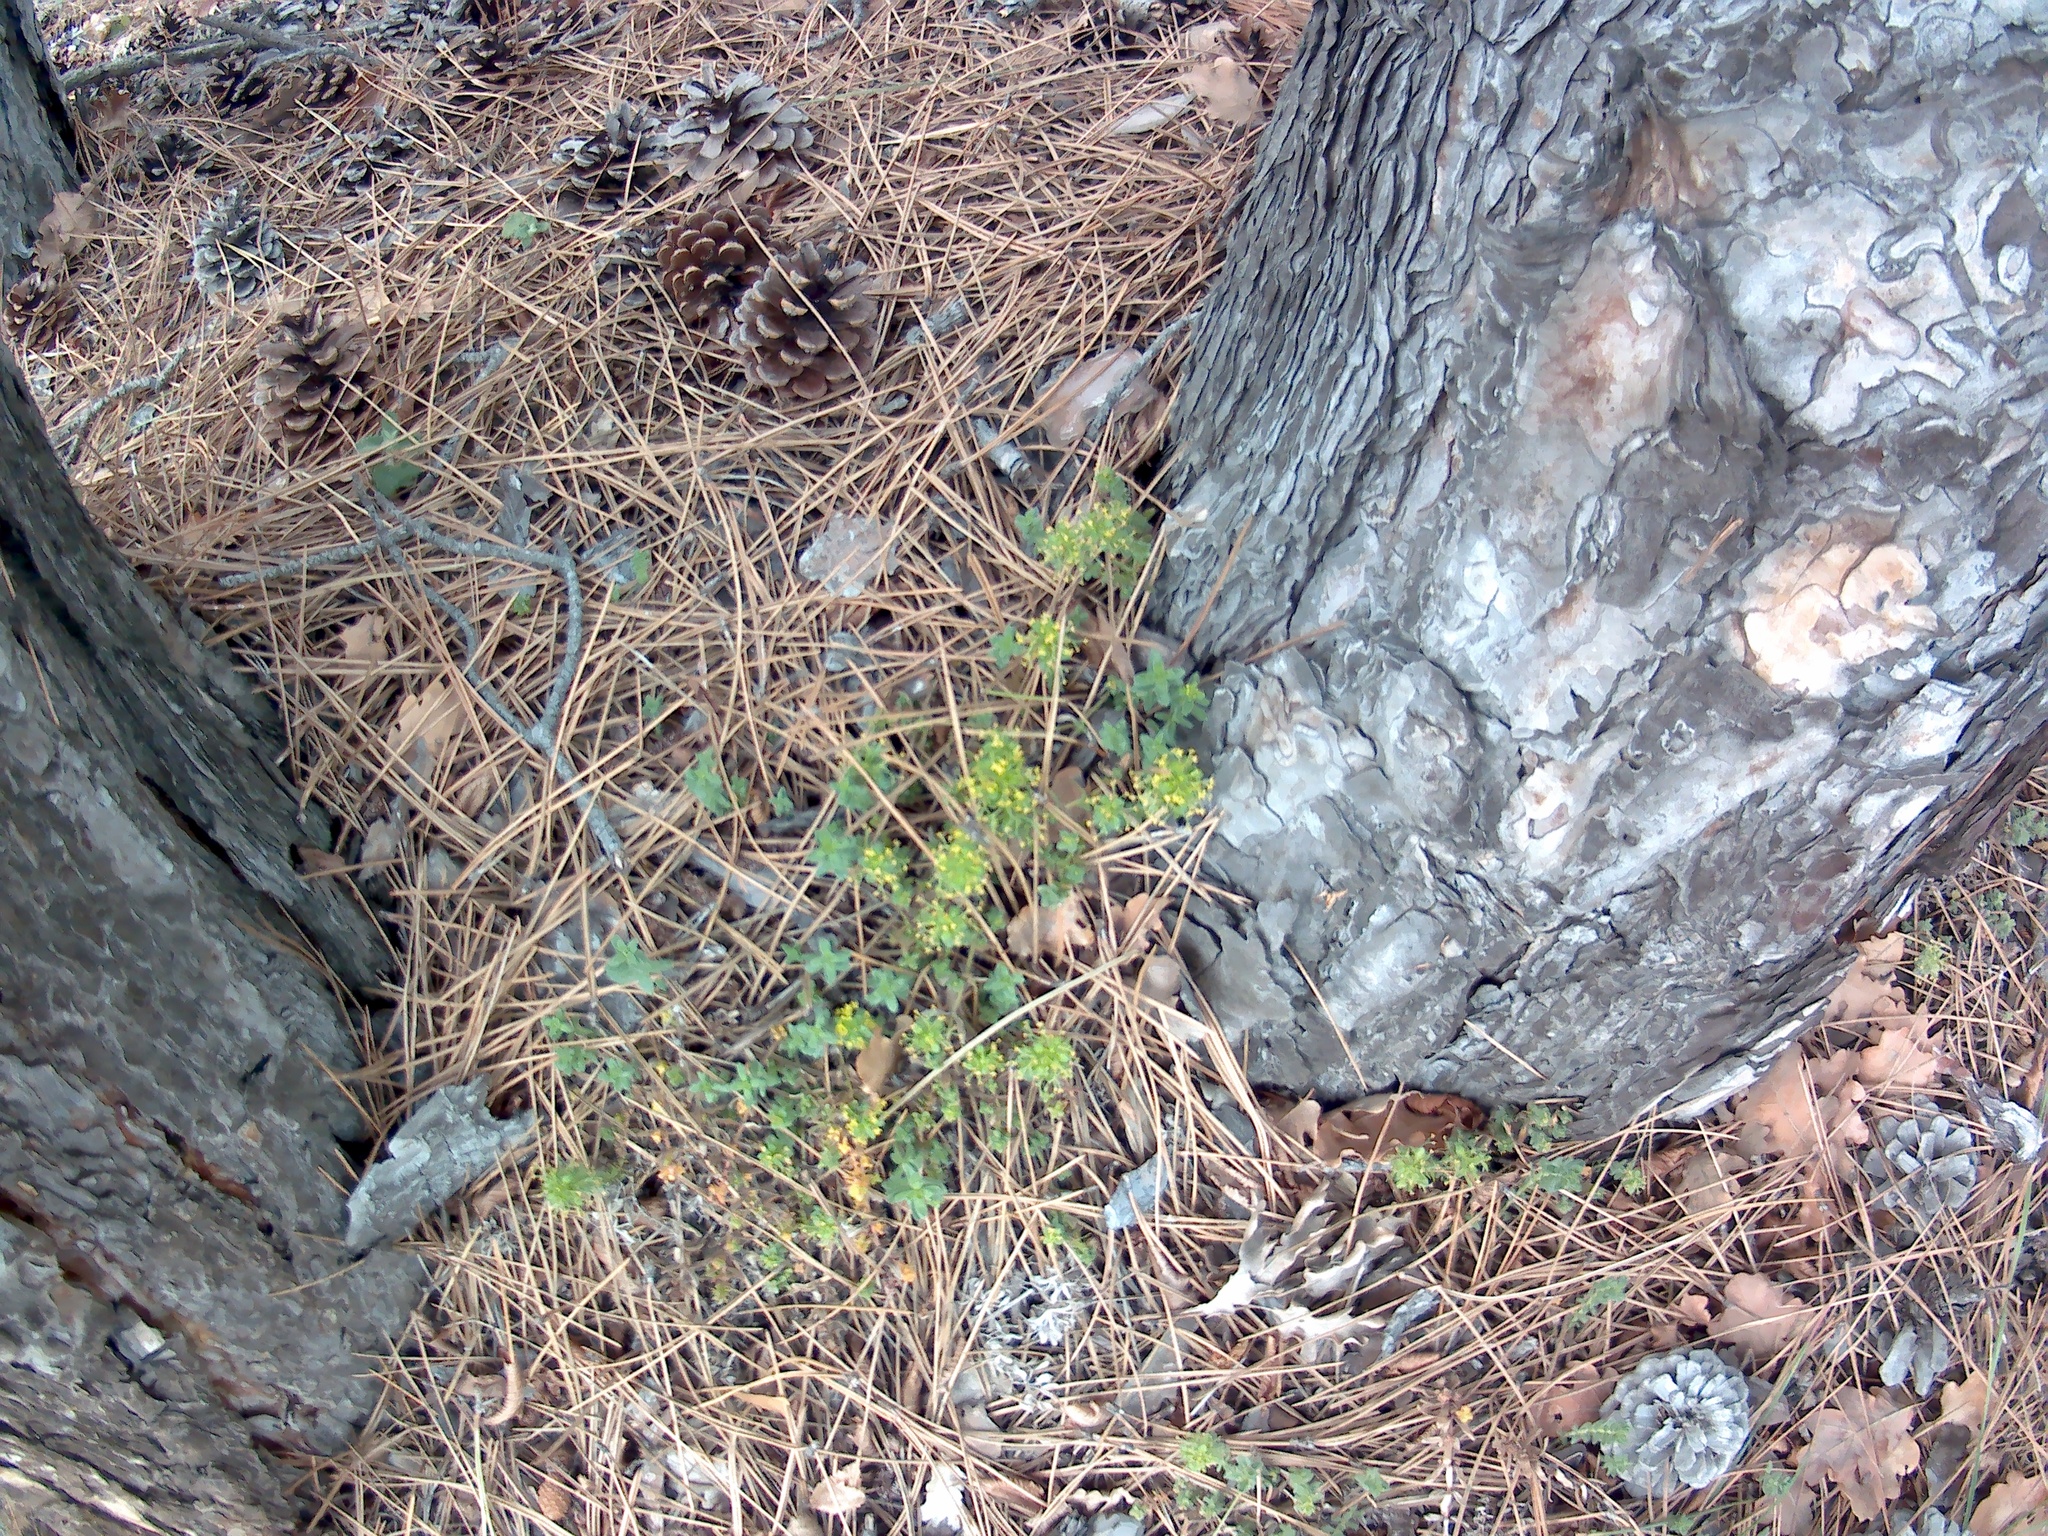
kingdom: Plantae
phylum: Tracheophyta
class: Magnoliopsida
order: Gentianales
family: Rubiaceae
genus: Cruciata
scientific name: Cruciata taurica
